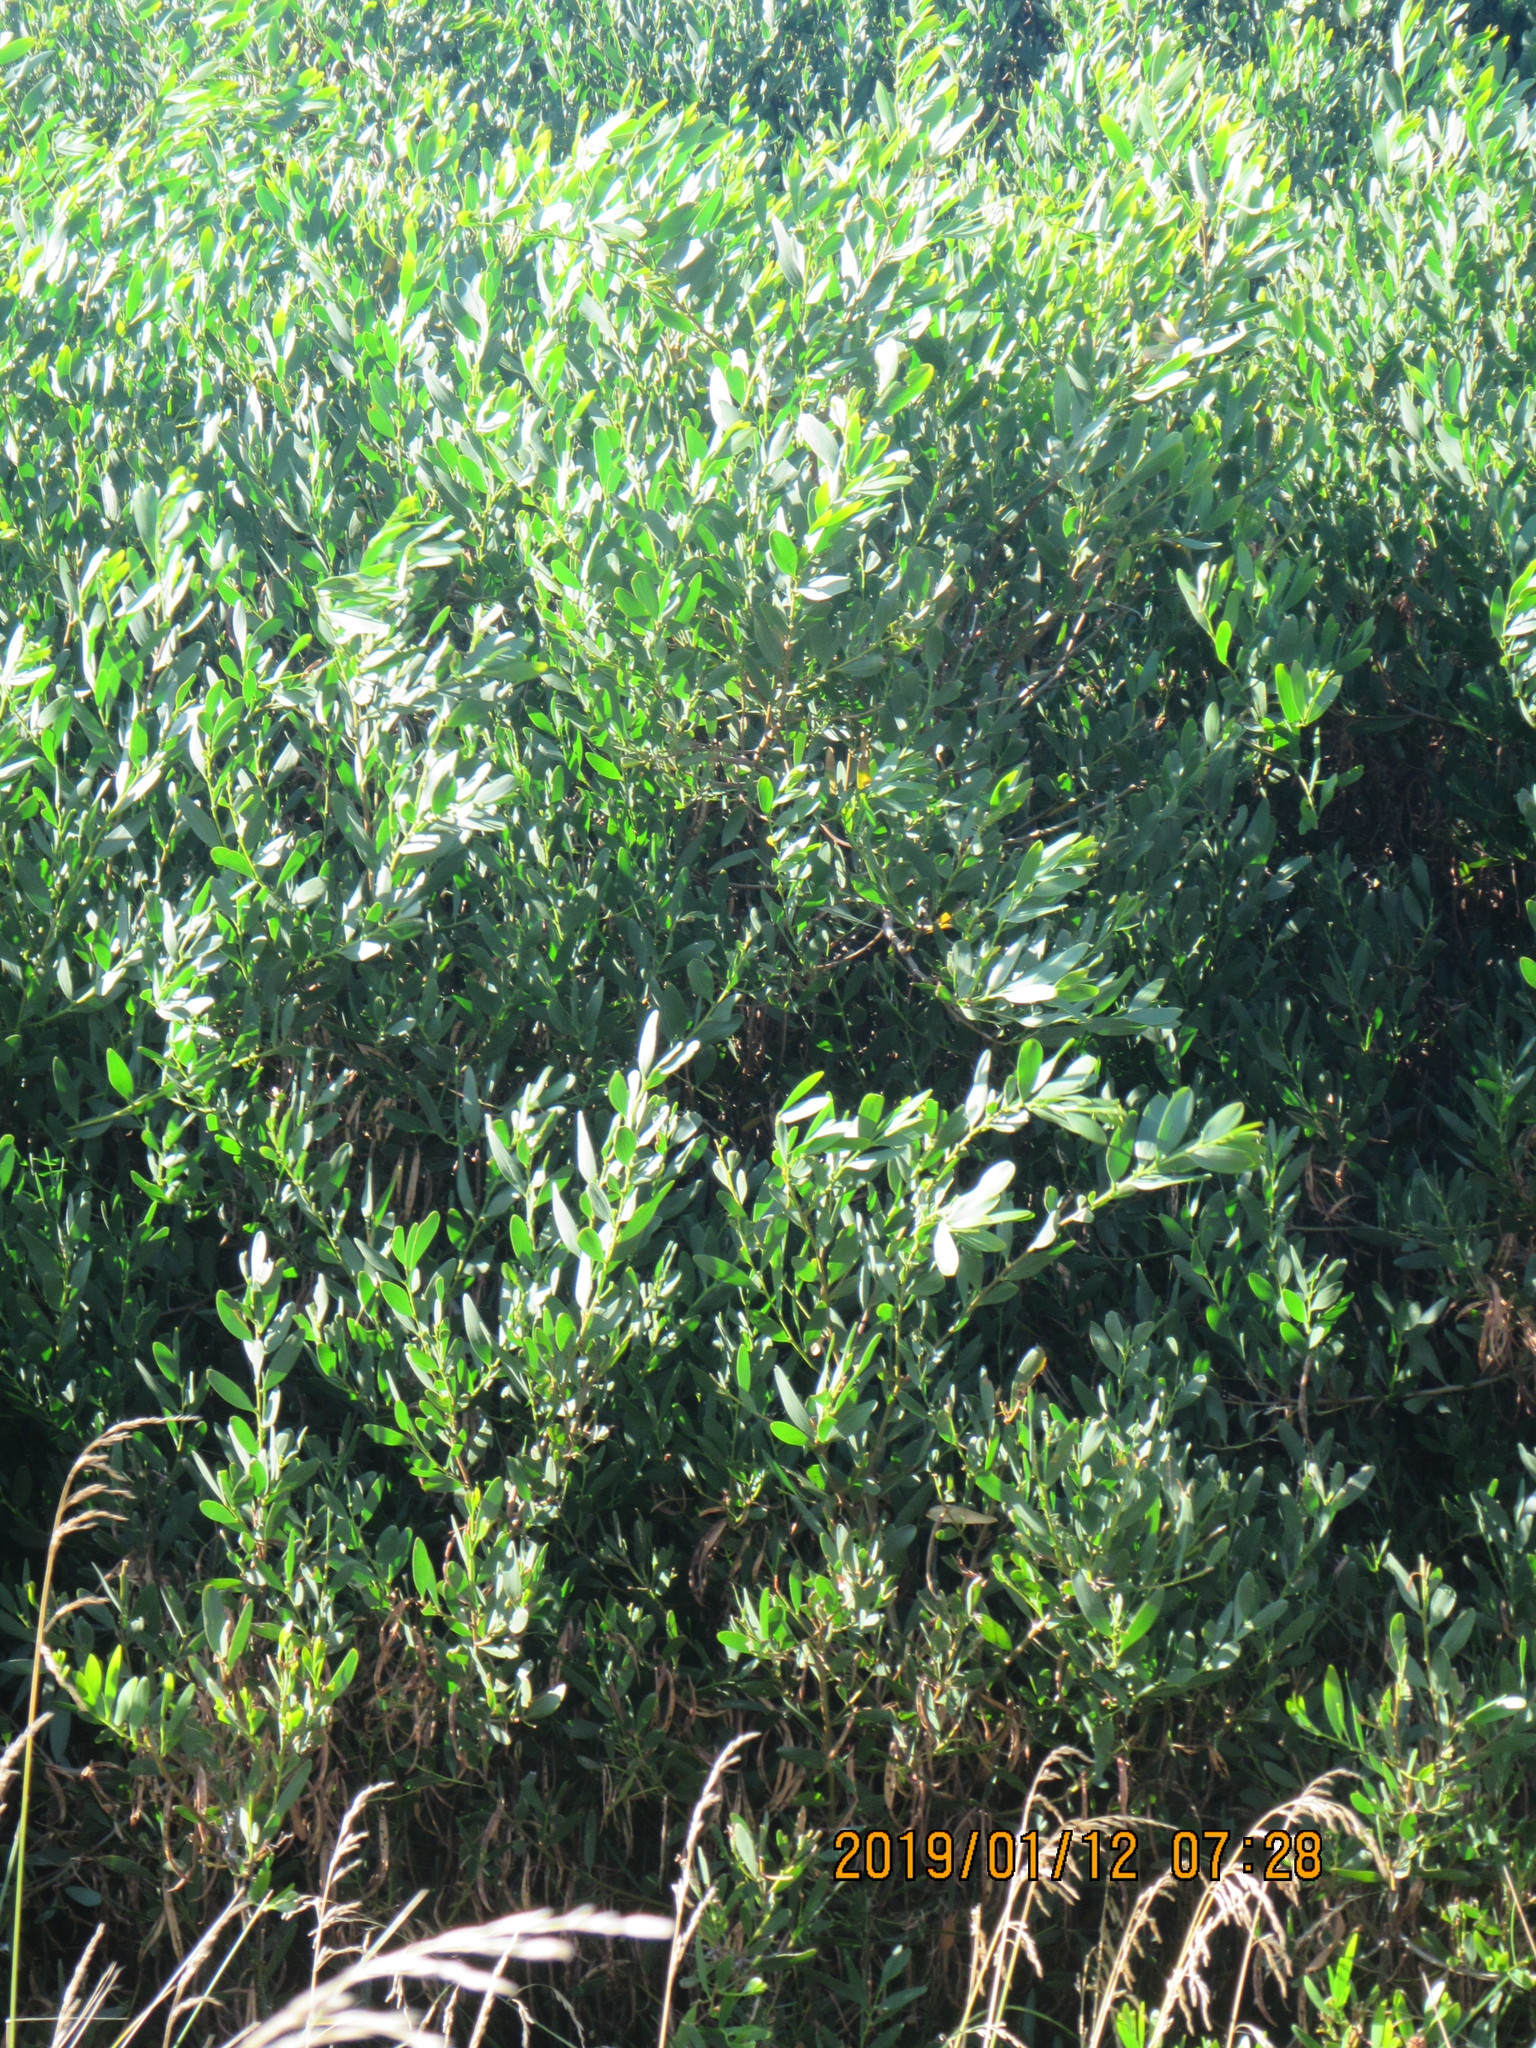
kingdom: Plantae
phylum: Tracheophyta
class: Magnoliopsida
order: Fabales
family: Fabaceae
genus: Acacia
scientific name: Acacia longifolia
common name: Sydney golden wattle
